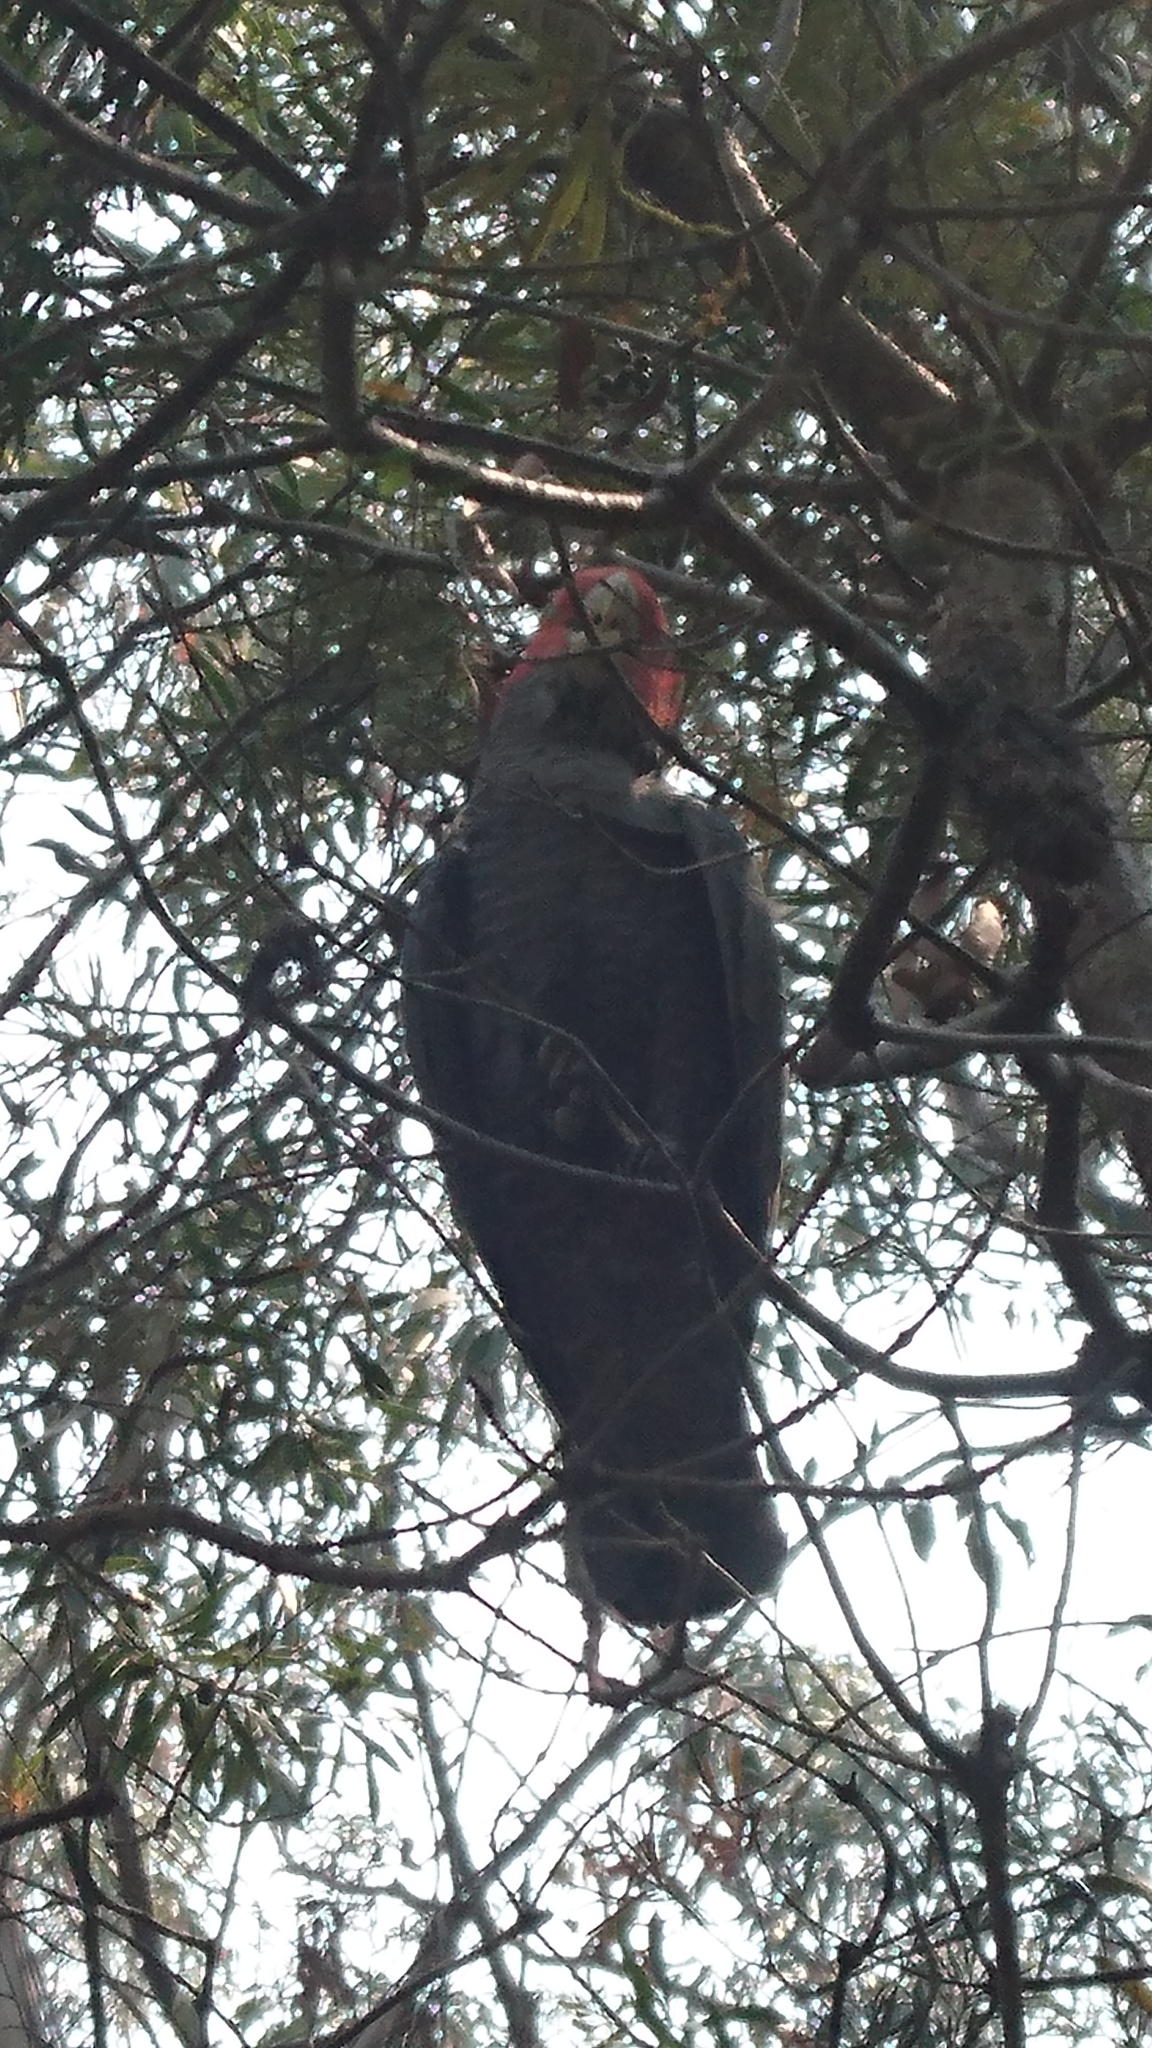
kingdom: Animalia
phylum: Chordata
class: Aves
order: Psittaciformes
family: Psittacidae
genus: Callocephalon
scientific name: Callocephalon fimbriatum
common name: Gang-gang cockatoo
